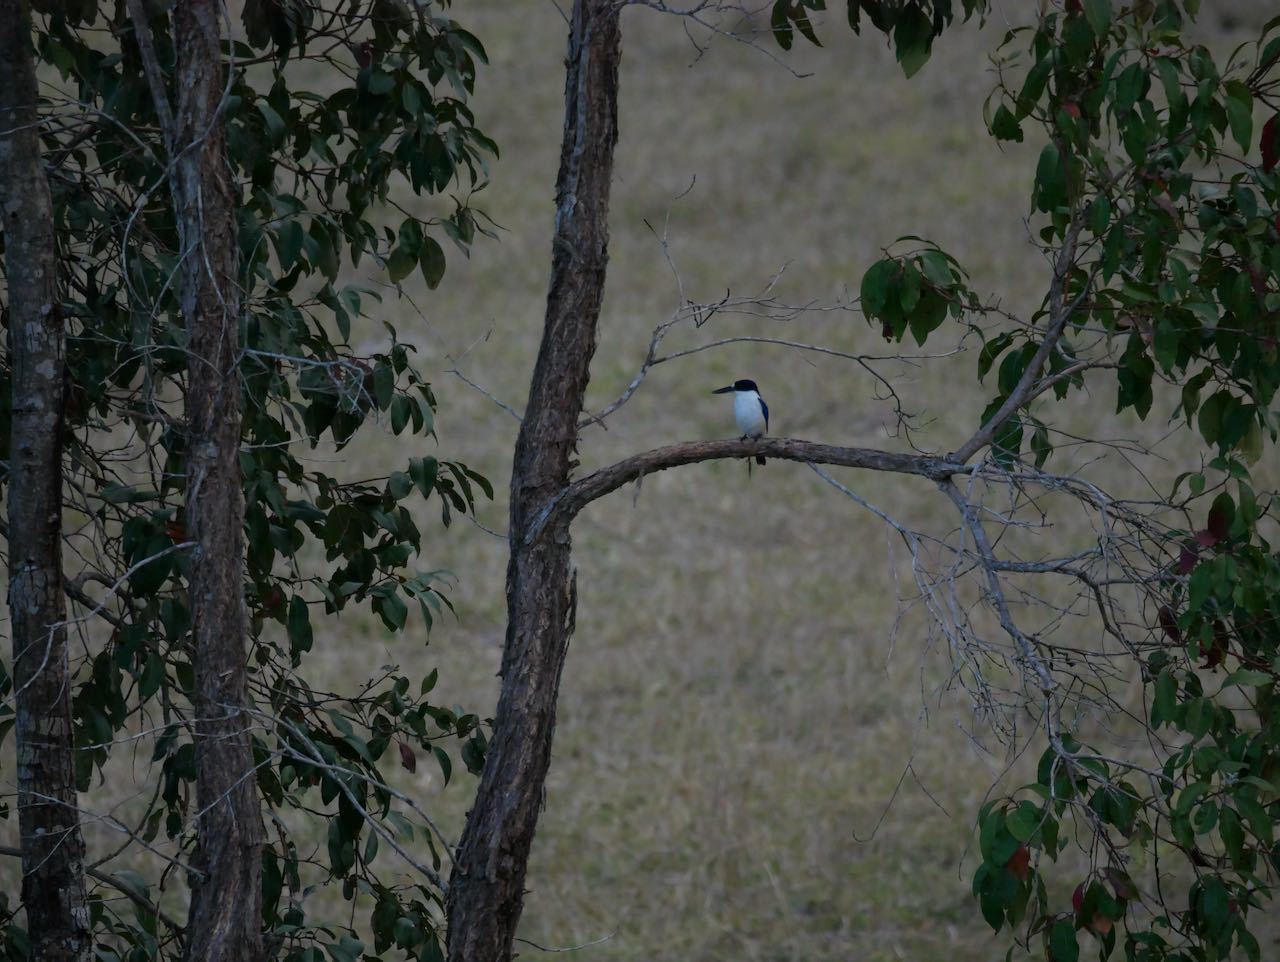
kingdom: Animalia
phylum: Chordata
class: Aves
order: Coraciiformes
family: Alcedinidae
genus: Todiramphus
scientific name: Todiramphus macleayii
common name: Forest kingfisher
